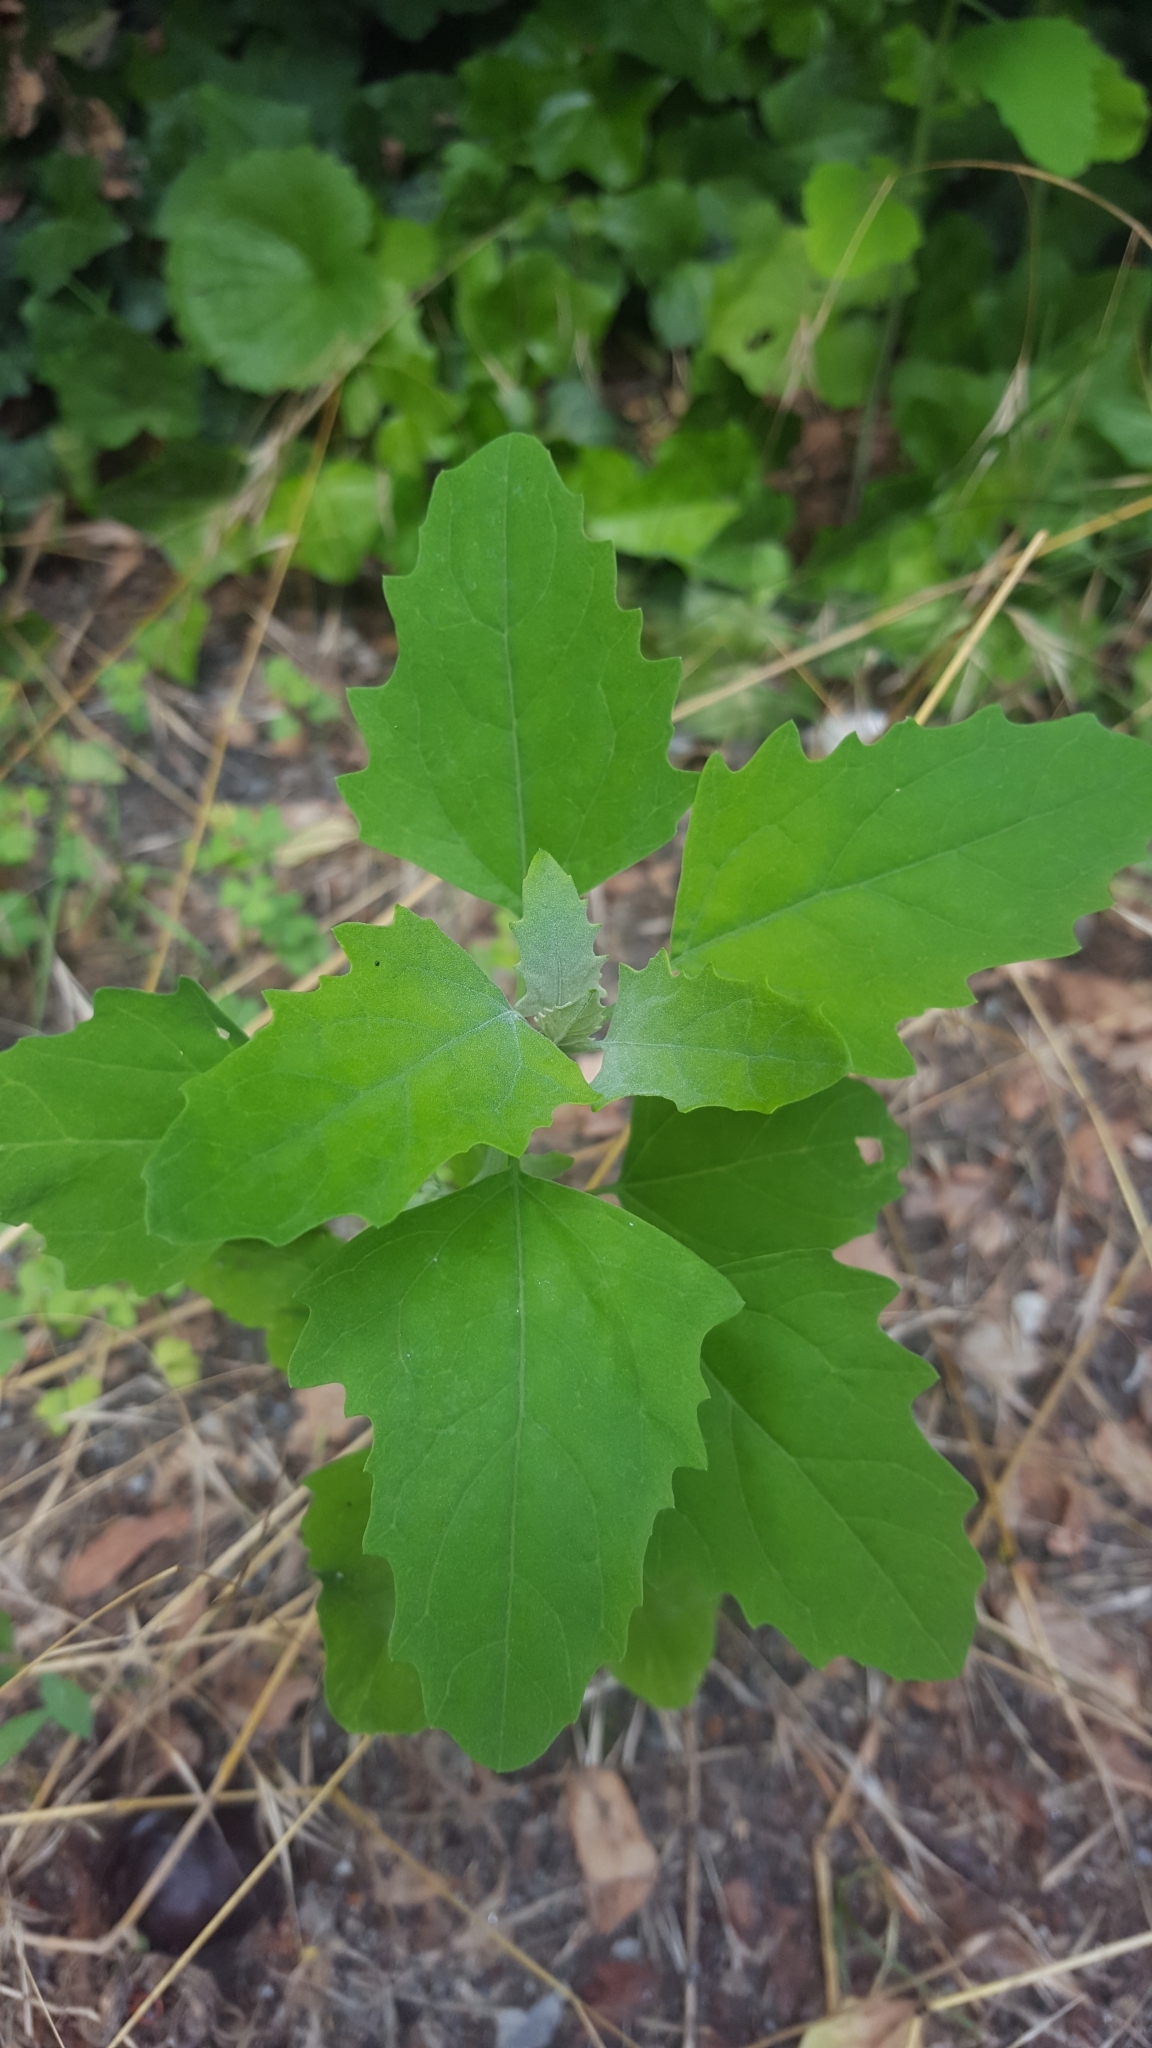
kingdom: Plantae
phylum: Tracheophyta
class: Magnoliopsida
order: Caryophyllales
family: Amaranthaceae
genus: Chenopodium
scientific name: Chenopodium album
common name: Fat-hen
